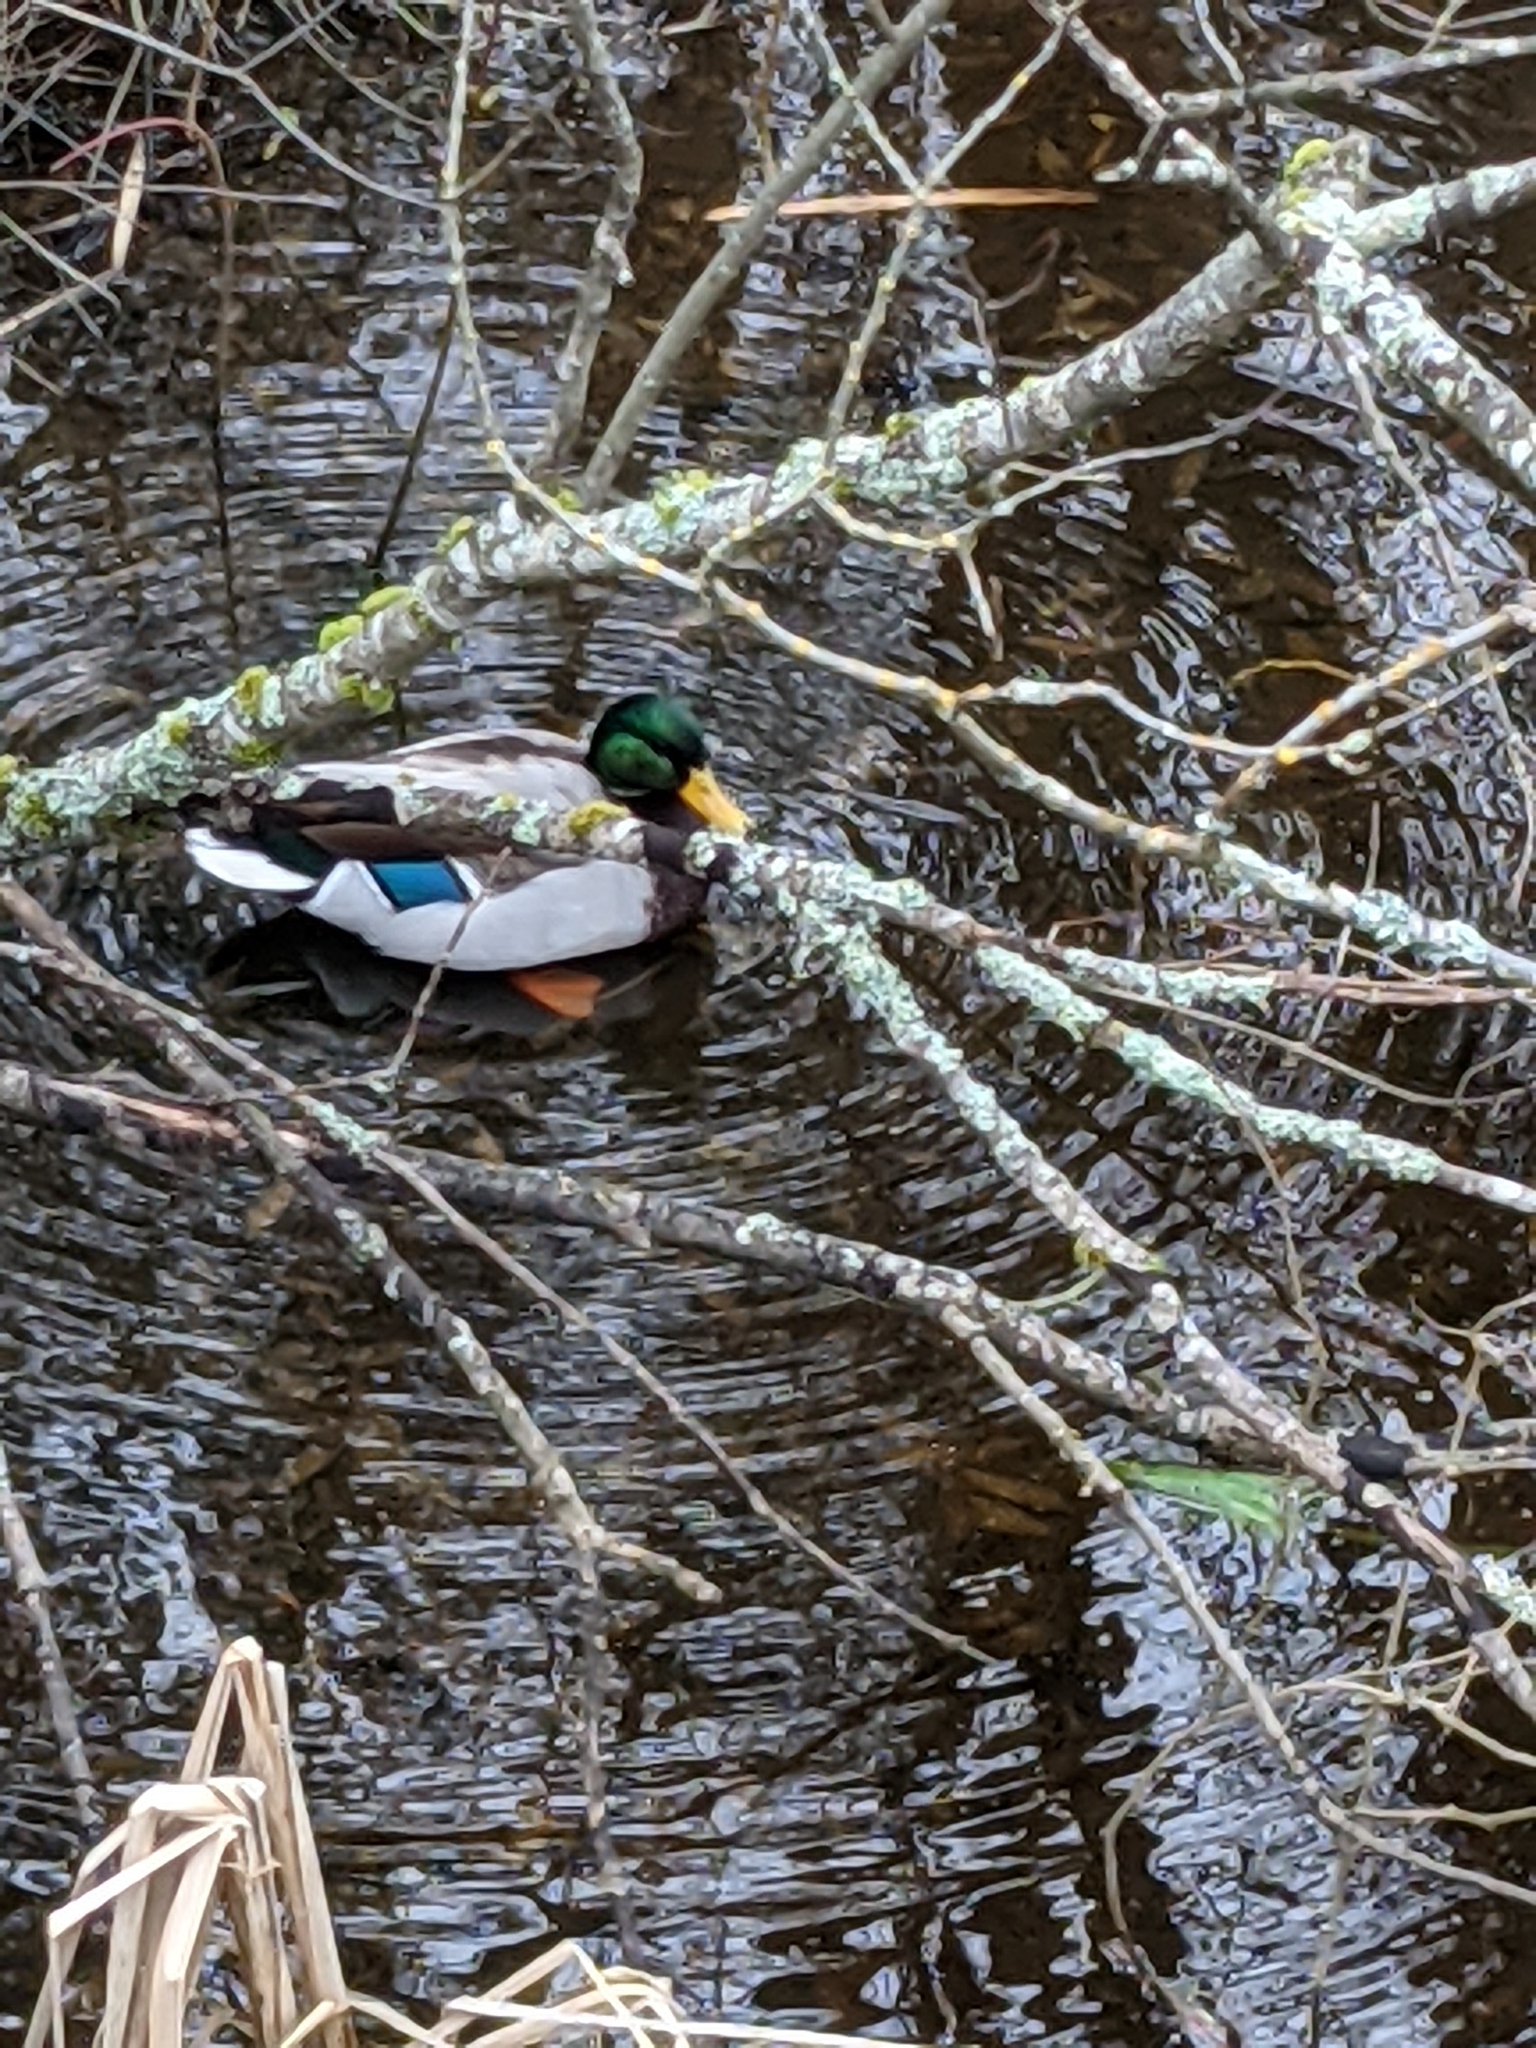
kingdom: Animalia
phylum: Chordata
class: Aves
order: Anseriformes
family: Anatidae
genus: Anas
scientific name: Anas platyrhynchos
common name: Mallard
